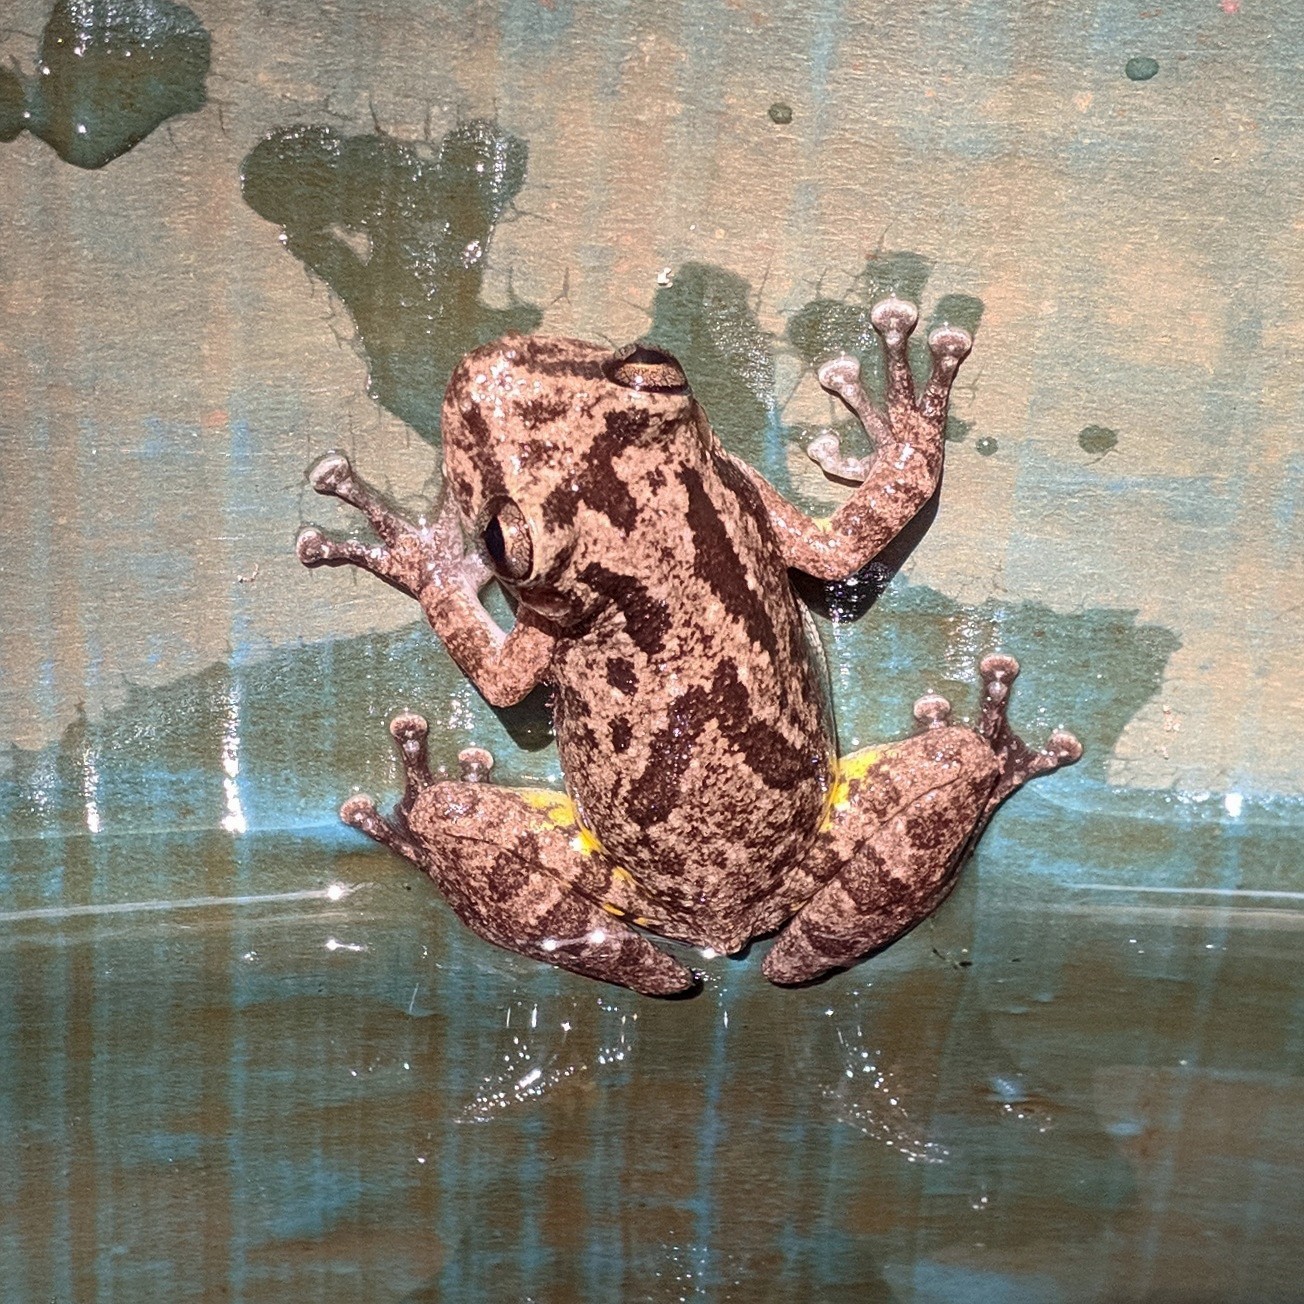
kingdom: Animalia
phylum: Chordata
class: Amphibia
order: Anura
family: Hylidae
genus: Scinax
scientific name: Scinax x-signatus
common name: Venezuela snouted treefrog
